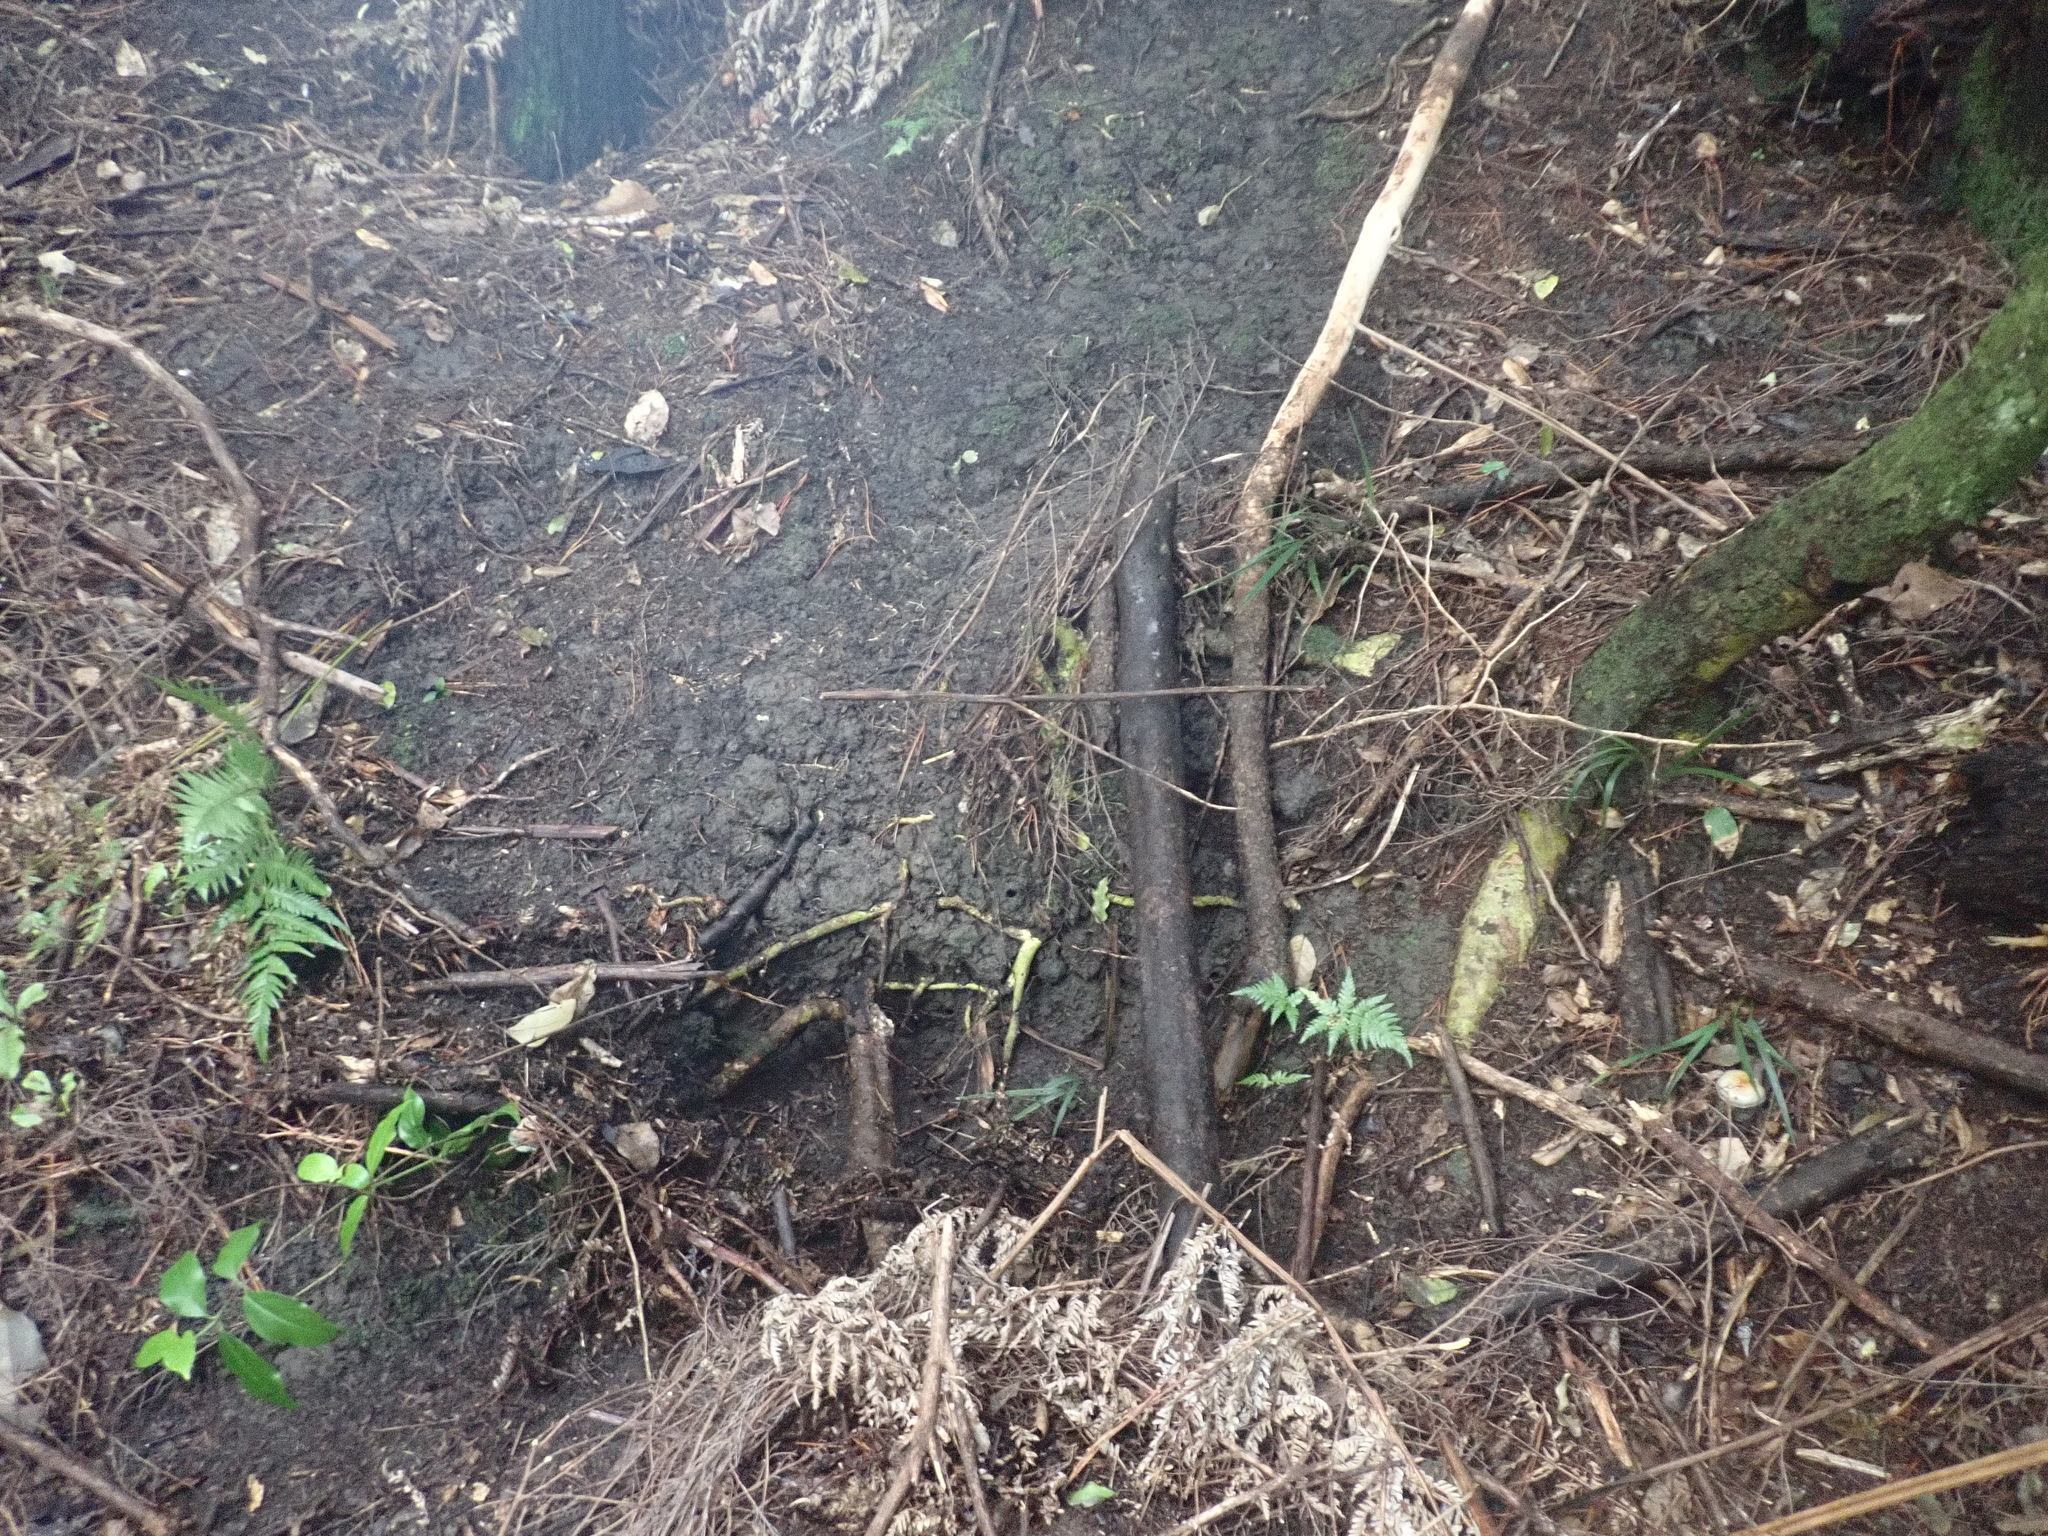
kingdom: Plantae
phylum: Tracheophyta
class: Liliopsida
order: Arecales
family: Arecaceae
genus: Rhopalostylis
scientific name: Rhopalostylis sapida
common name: Feather-duster palm
